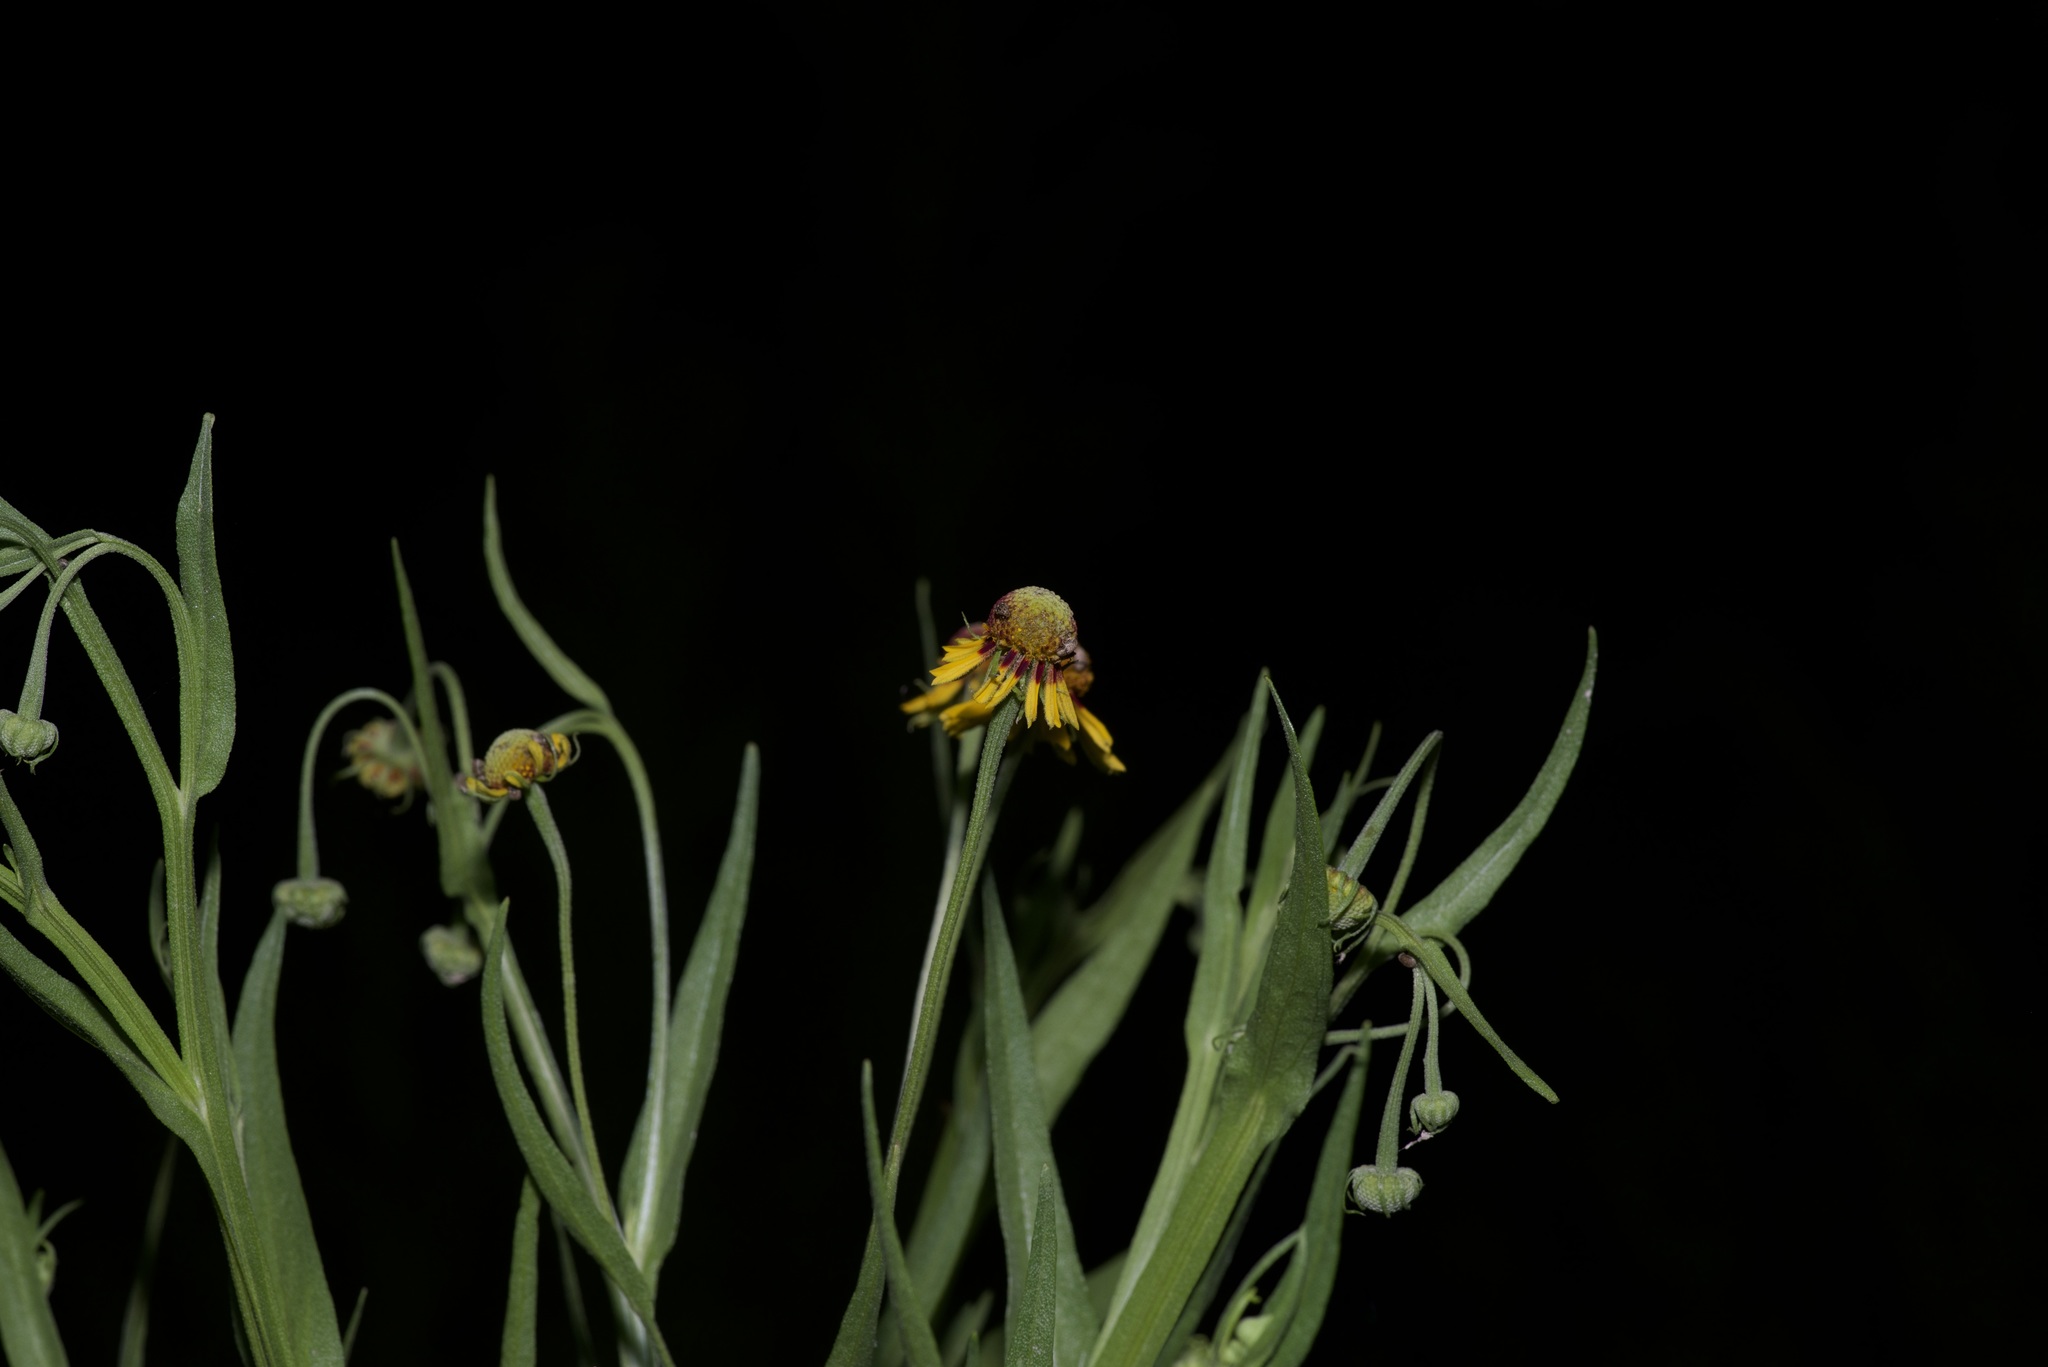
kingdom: Plantae
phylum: Tracheophyta
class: Magnoliopsida
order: Asterales
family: Asteraceae
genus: Helenium
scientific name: Helenium elegans
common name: Pretty sneezeweed
